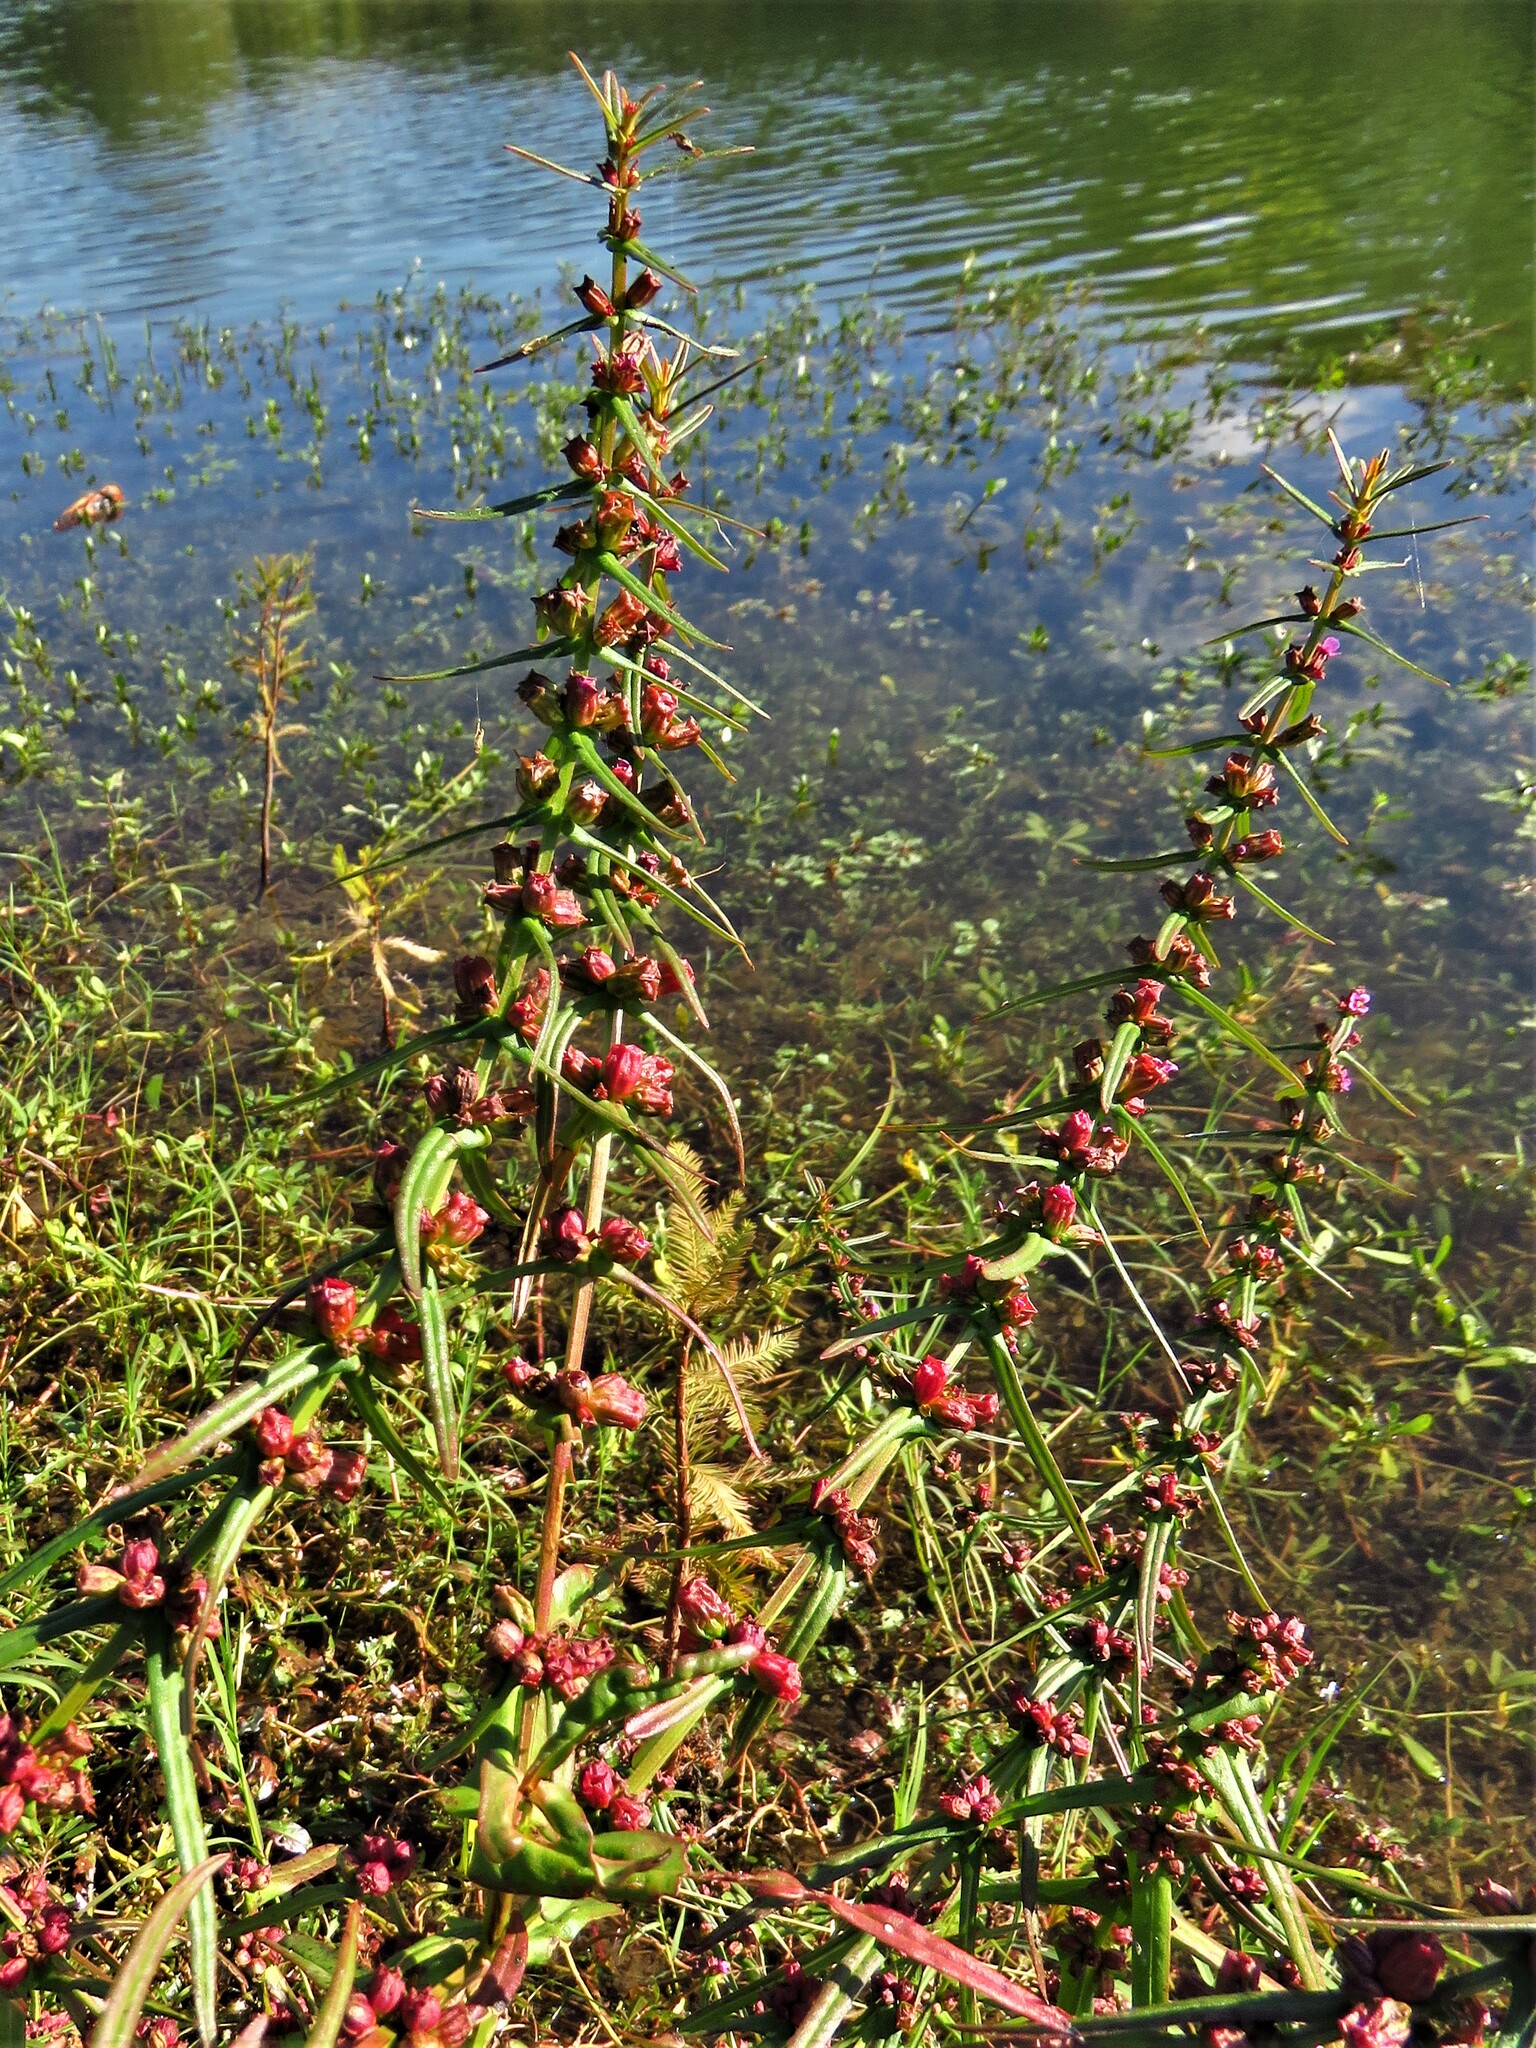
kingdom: Plantae
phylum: Tracheophyta
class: Magnoliopsida
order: Myrtales
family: Lythraceae
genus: Ammannia
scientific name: Ammannia coccinea
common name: Valley redstem
